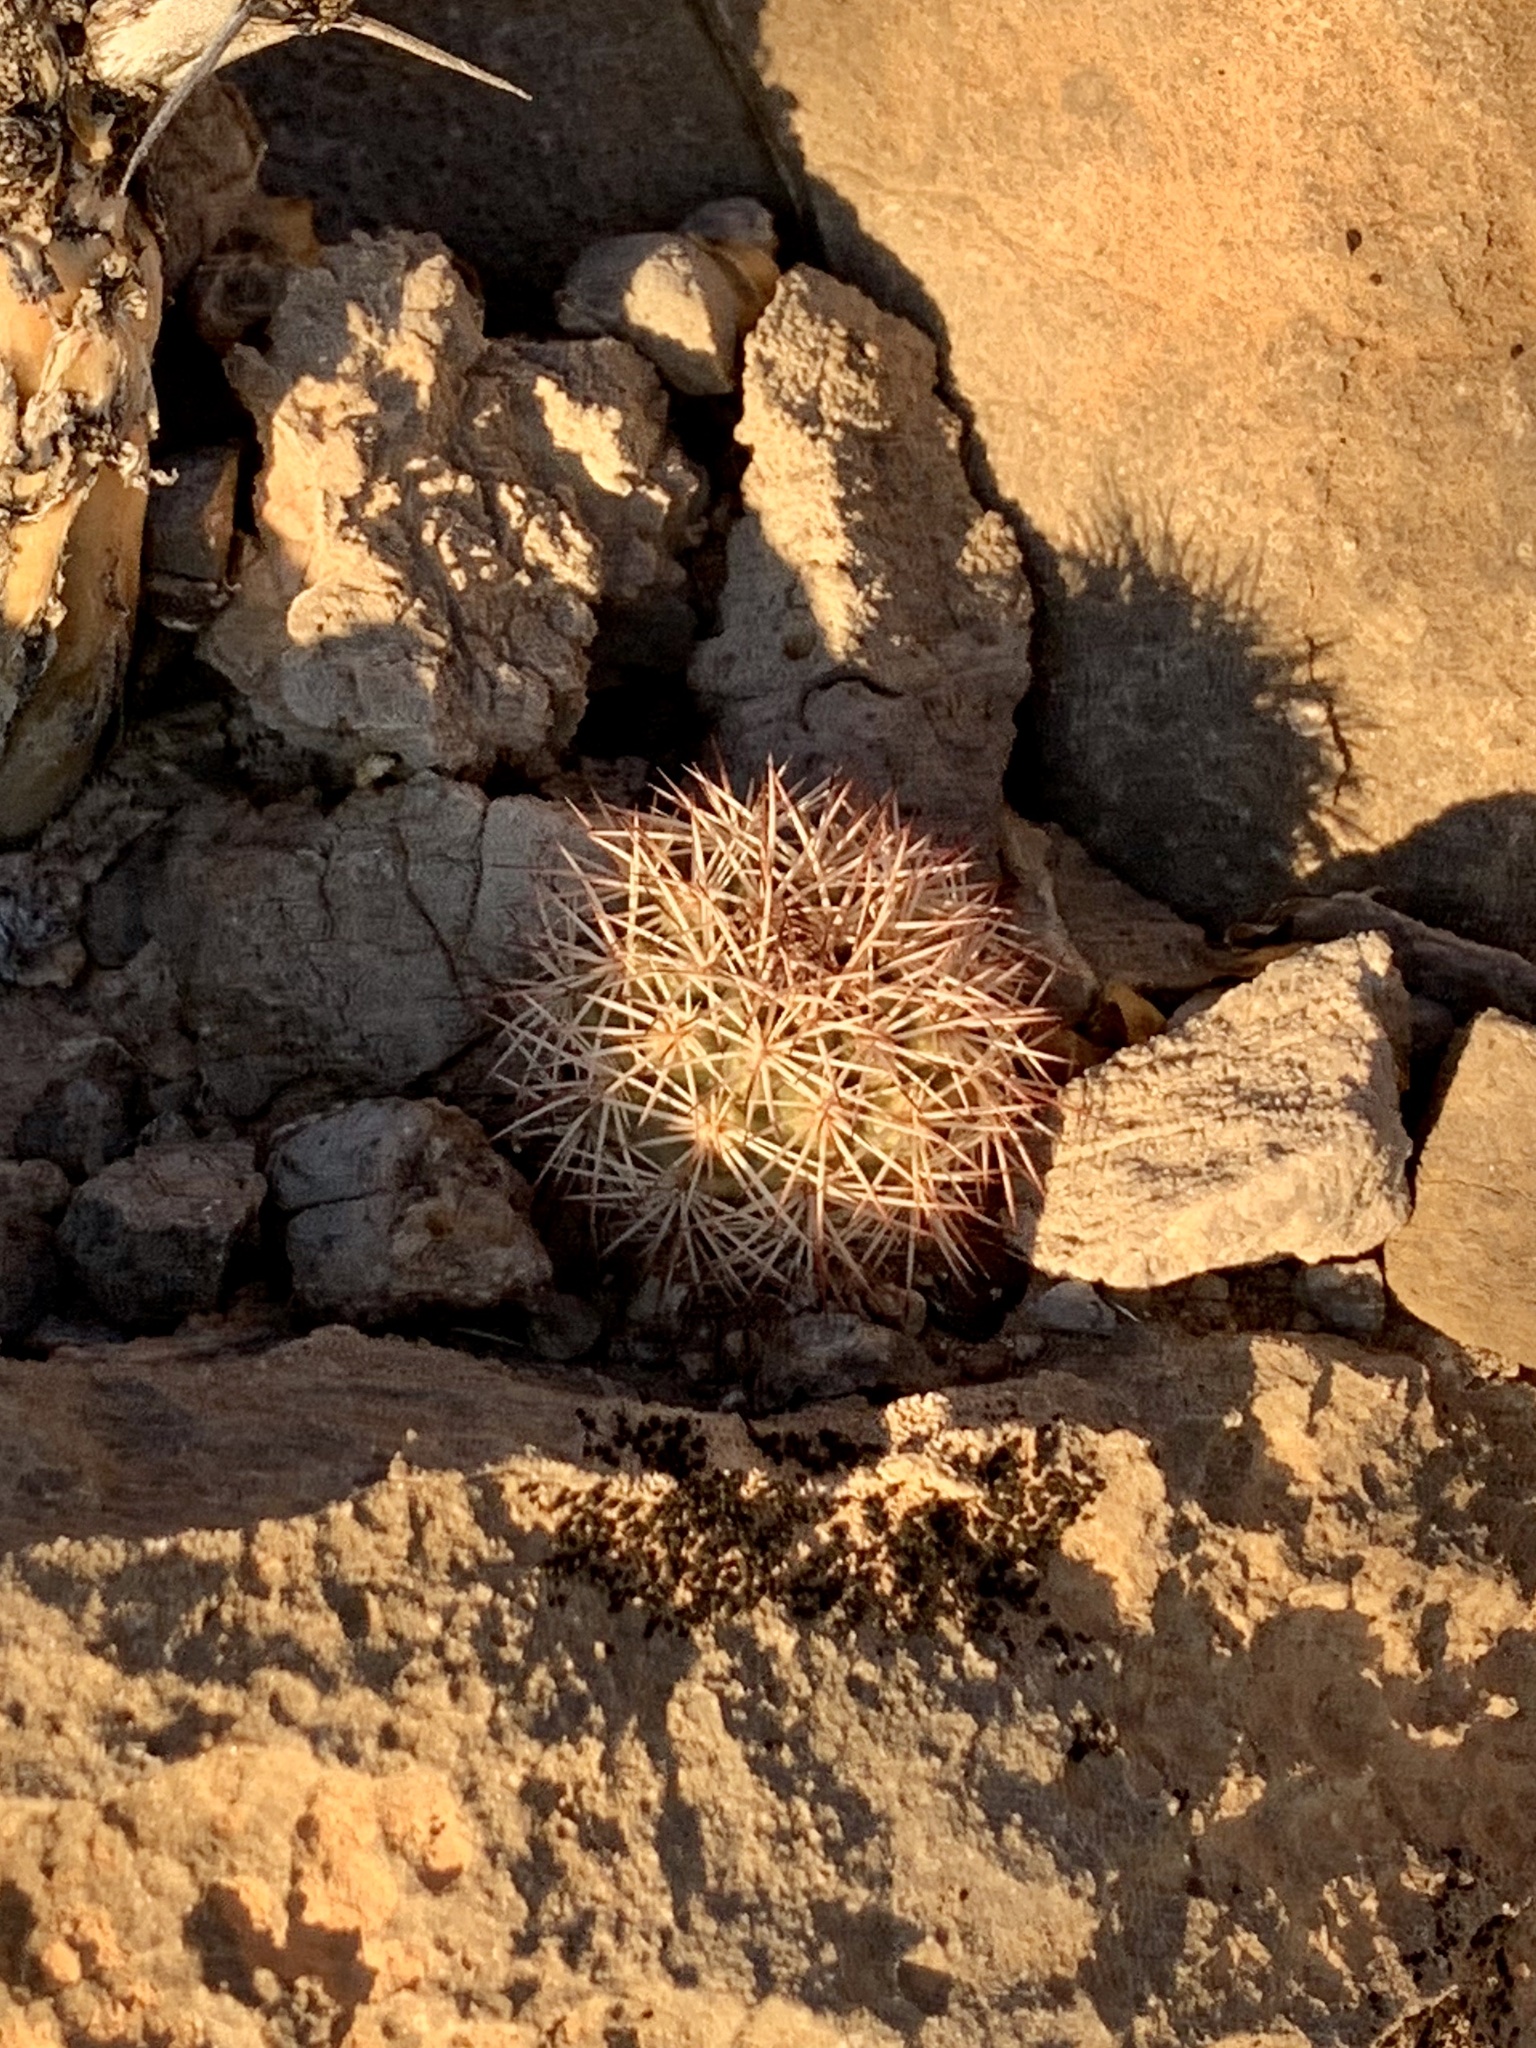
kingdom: Plantae
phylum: Tracheophyta
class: Magnoliopsida
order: Caryophyllales
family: Cactaceae
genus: Echinocereus
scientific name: Echinocereus dasyacanthus
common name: Spiny hedgehog cactus
